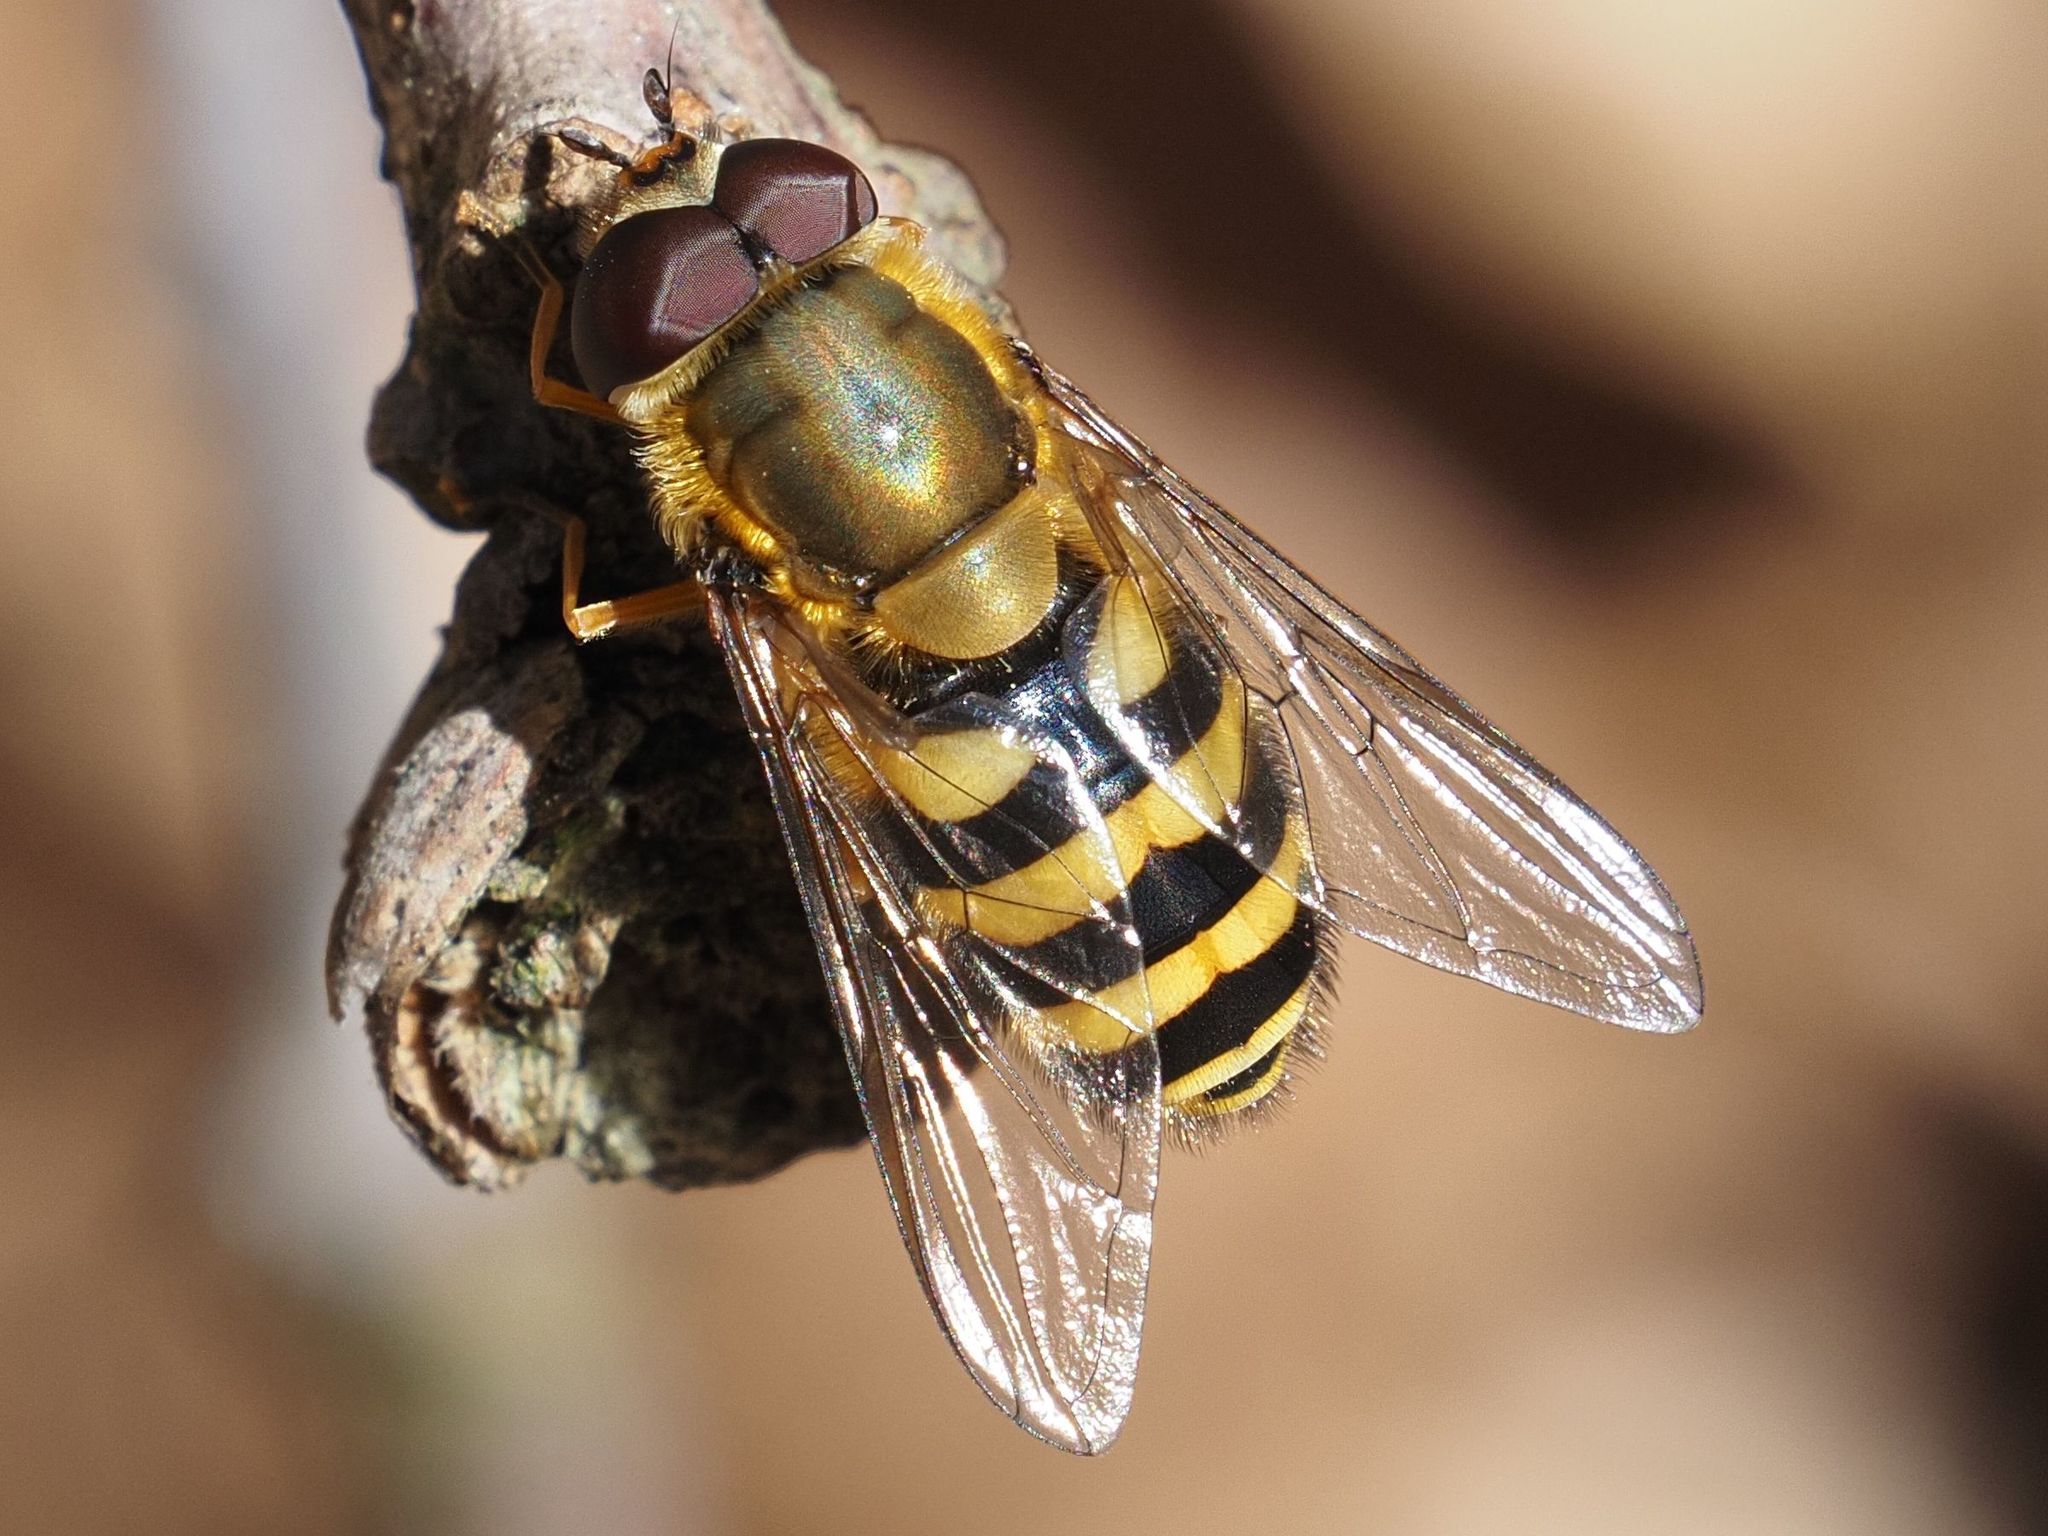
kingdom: Animalia
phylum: Arthropoda
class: Insecta
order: Diptera
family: Syrphidae
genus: Syrphus
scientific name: Syrphus
